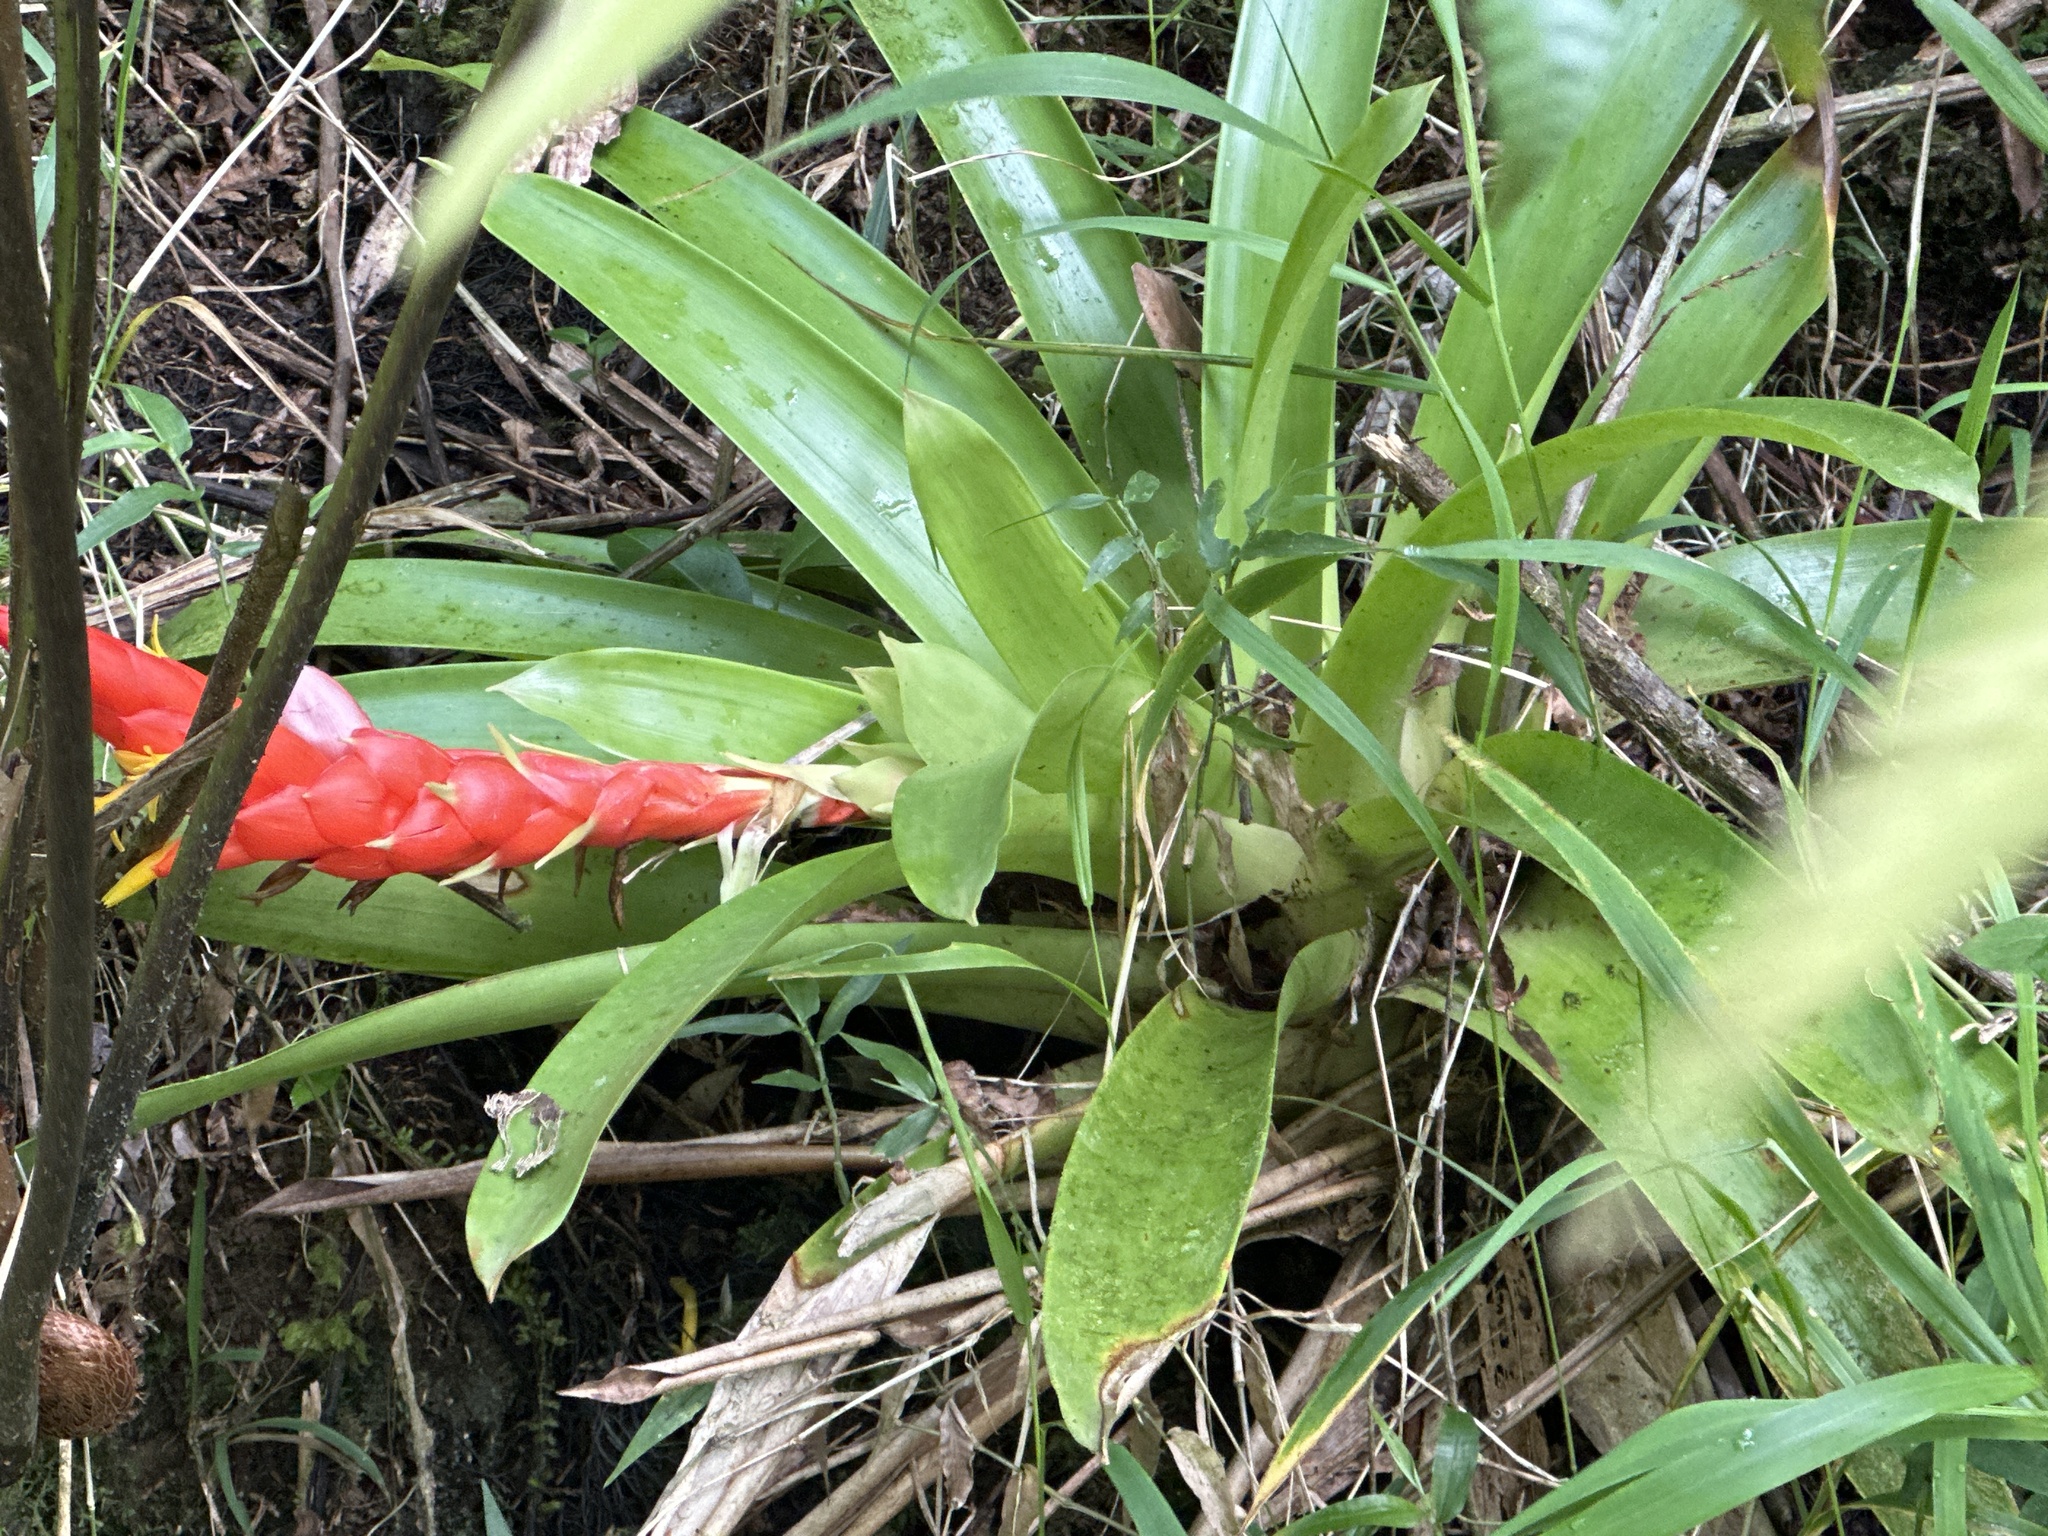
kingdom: Plantae
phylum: Tracheophyta
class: Liliopsida
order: Poales
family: Bromeliaceae
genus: Guzmania
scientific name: Guzmania berteroniana
